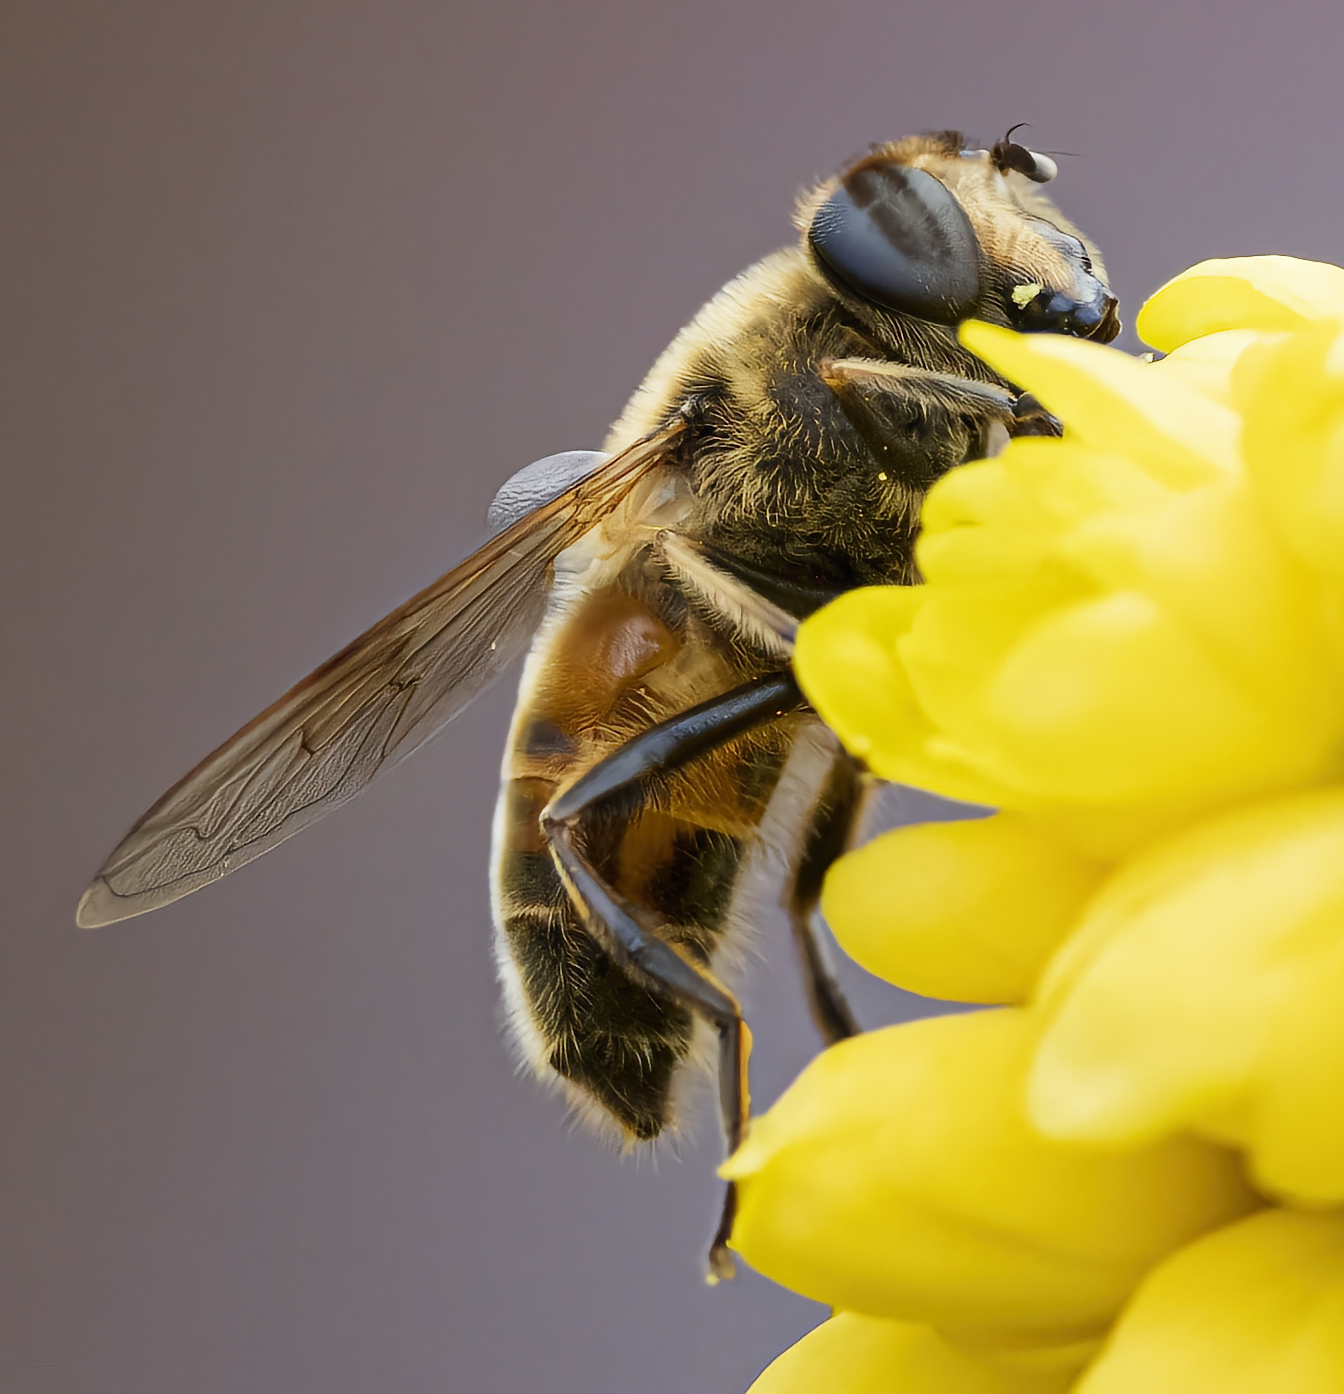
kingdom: Animalia
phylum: Arthropoda
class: Insecta
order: Diptera
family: Syrphidae
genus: Eristalis
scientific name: Eristalis tenax
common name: Drone fly
